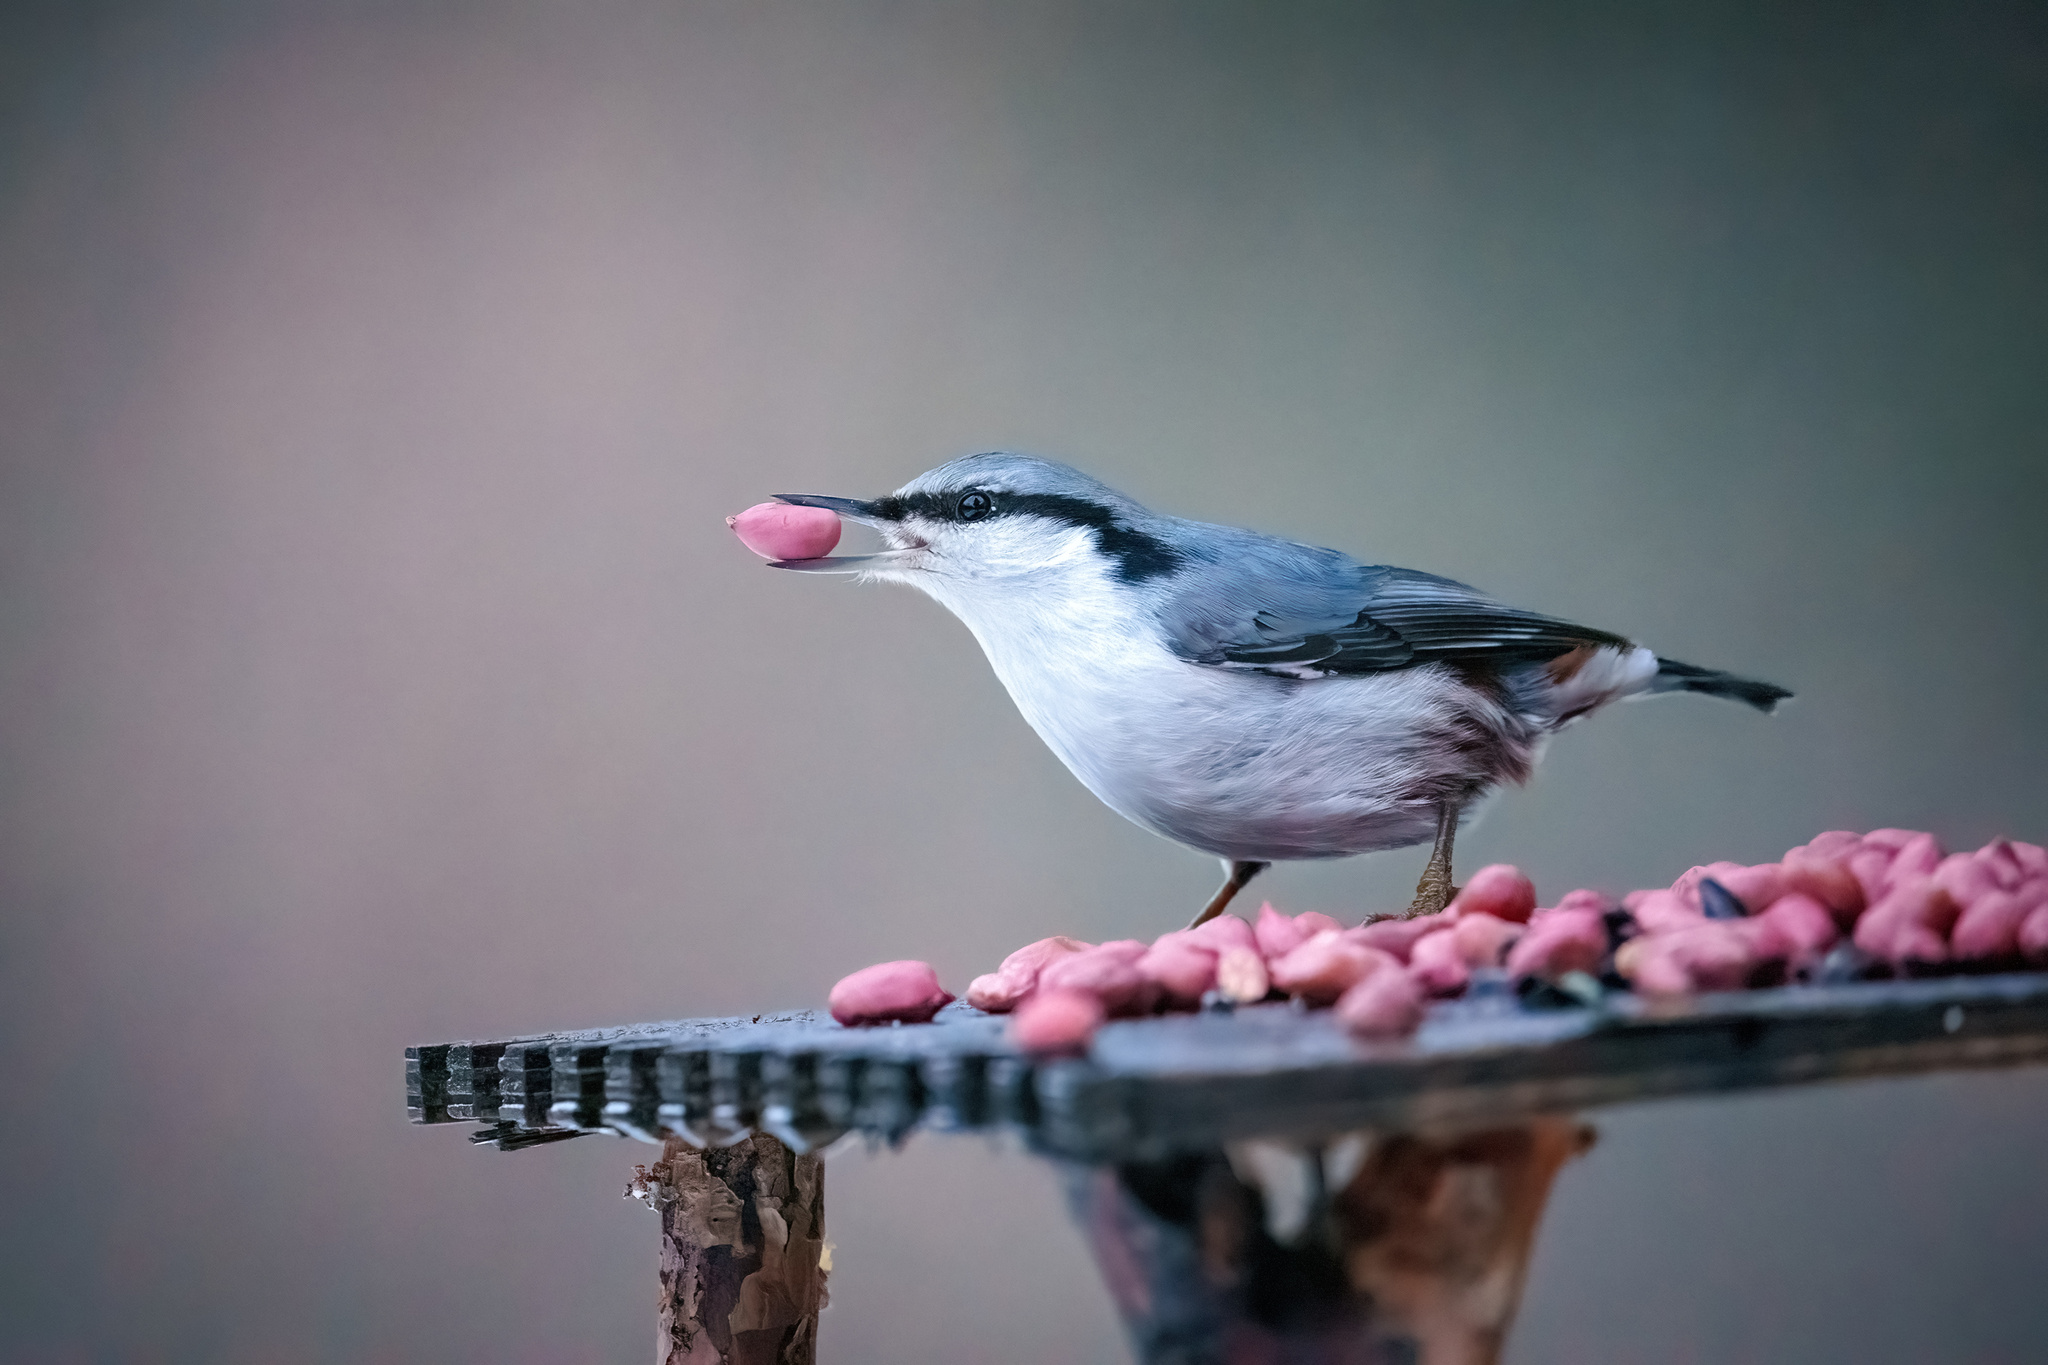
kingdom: Animalia
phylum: Chordata
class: Aves
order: Passeriformes
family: Sittidae
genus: Sitta
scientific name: Sitta europaea
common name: Eurasian nuthatch
